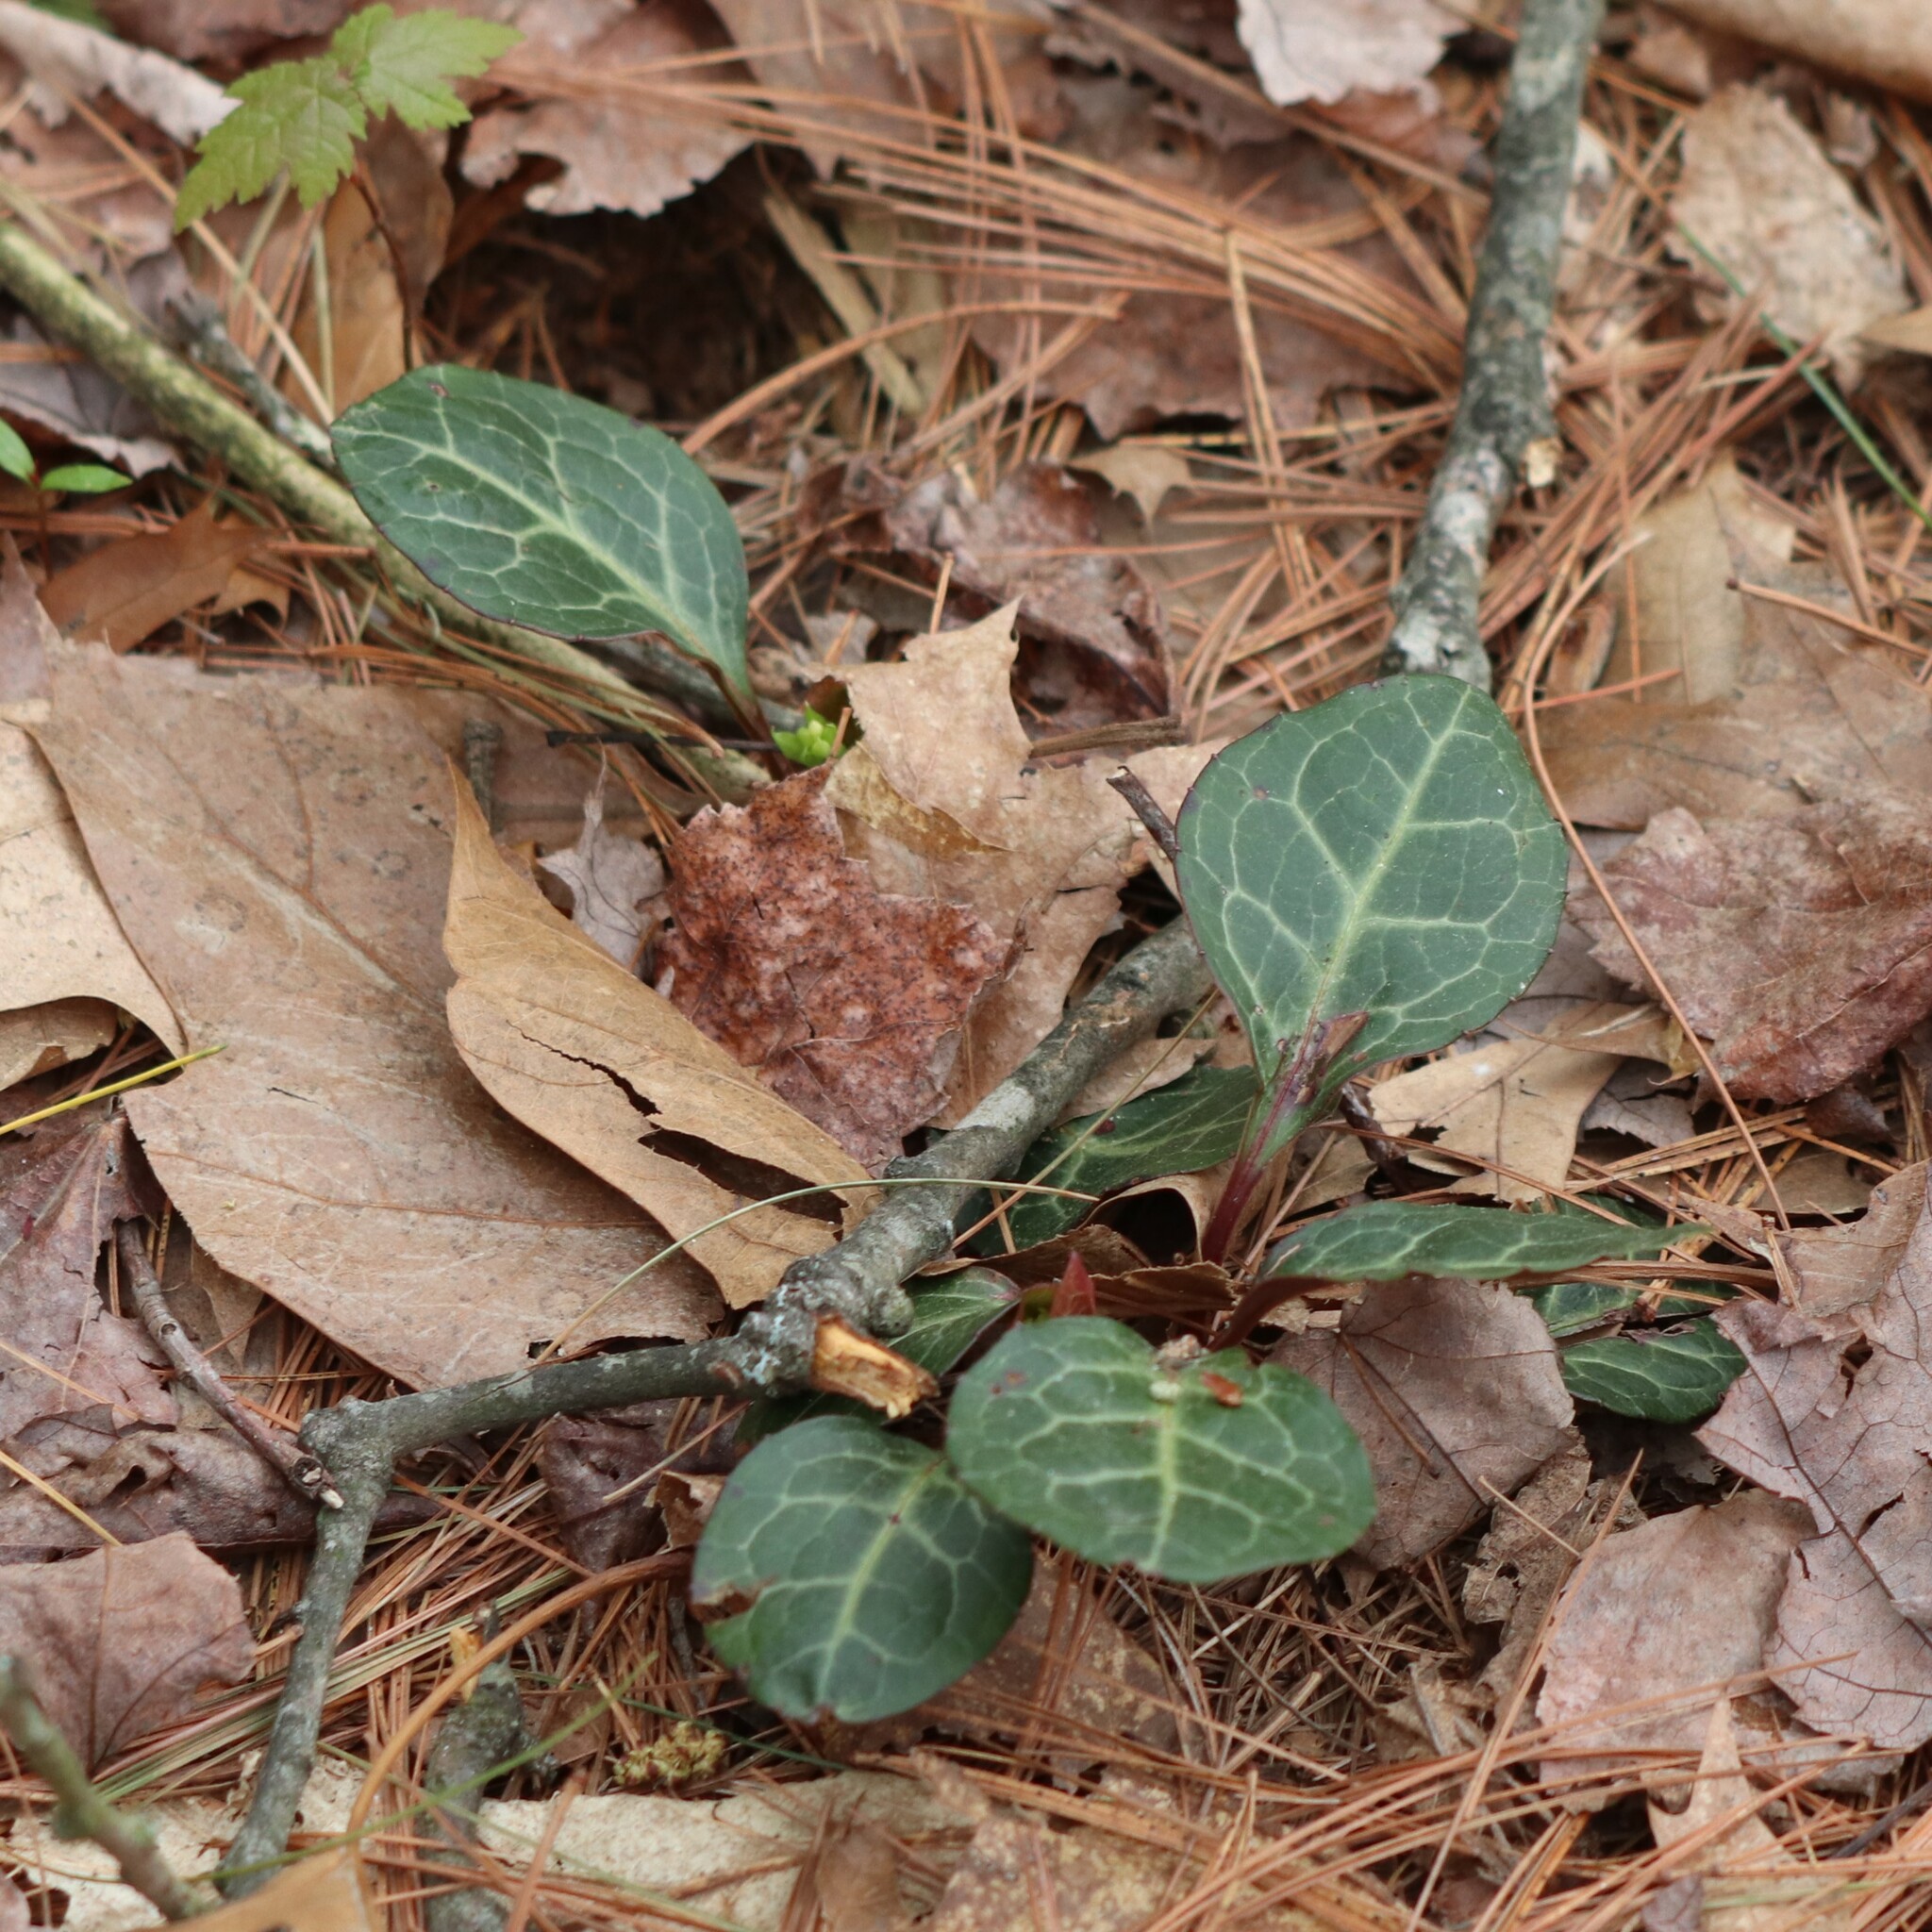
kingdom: Plantae
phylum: Tracheophyta
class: Magnoliopsida
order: Ericales
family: Ericaceae
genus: Pyrola
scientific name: Pyrola americana
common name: American wintergreen
